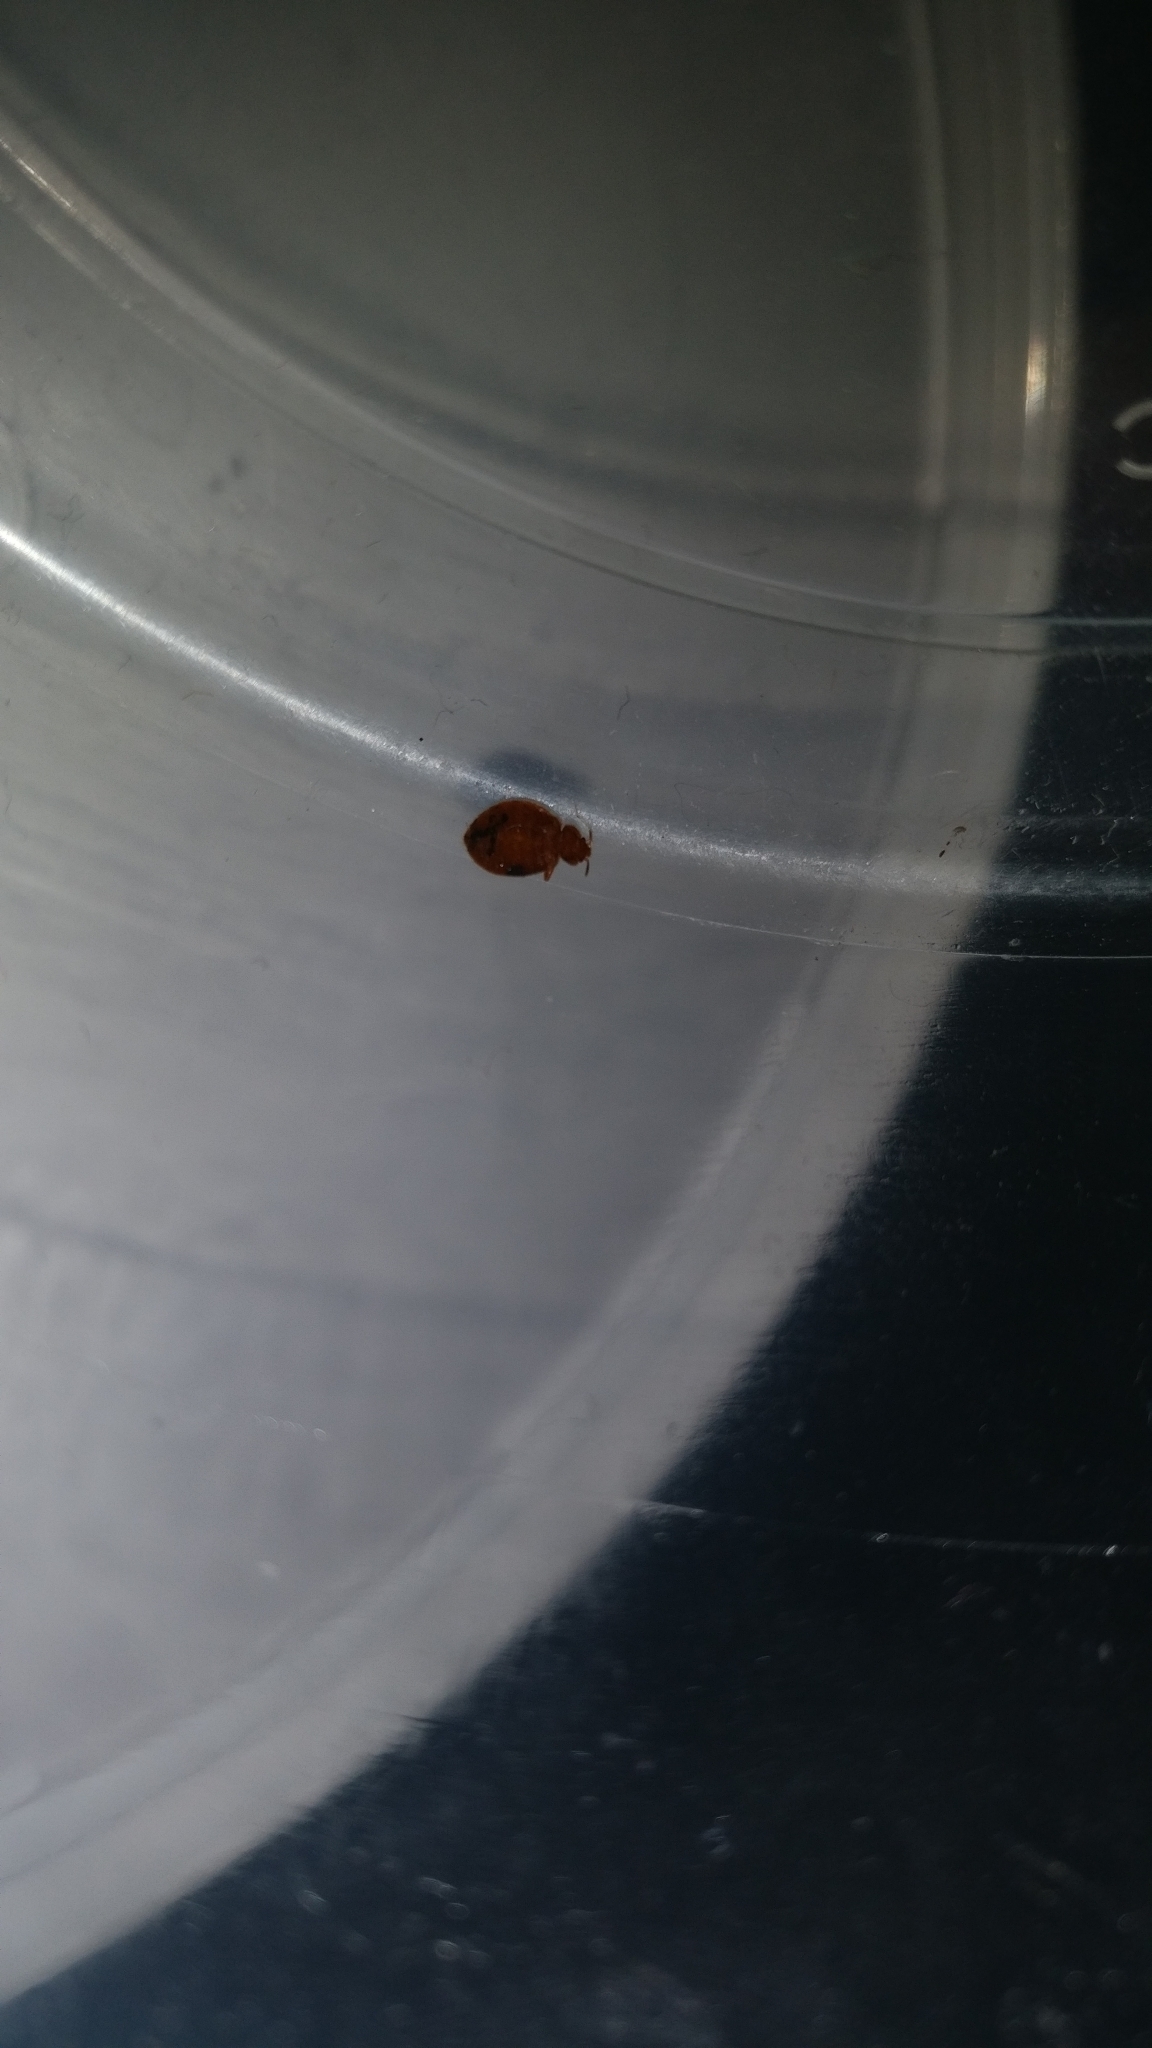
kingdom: Animalia
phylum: Arthropoda
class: Insecta
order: Hemiptera
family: Cimicidae
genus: Cimex
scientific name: Cimex lectularius
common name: Bed bug
